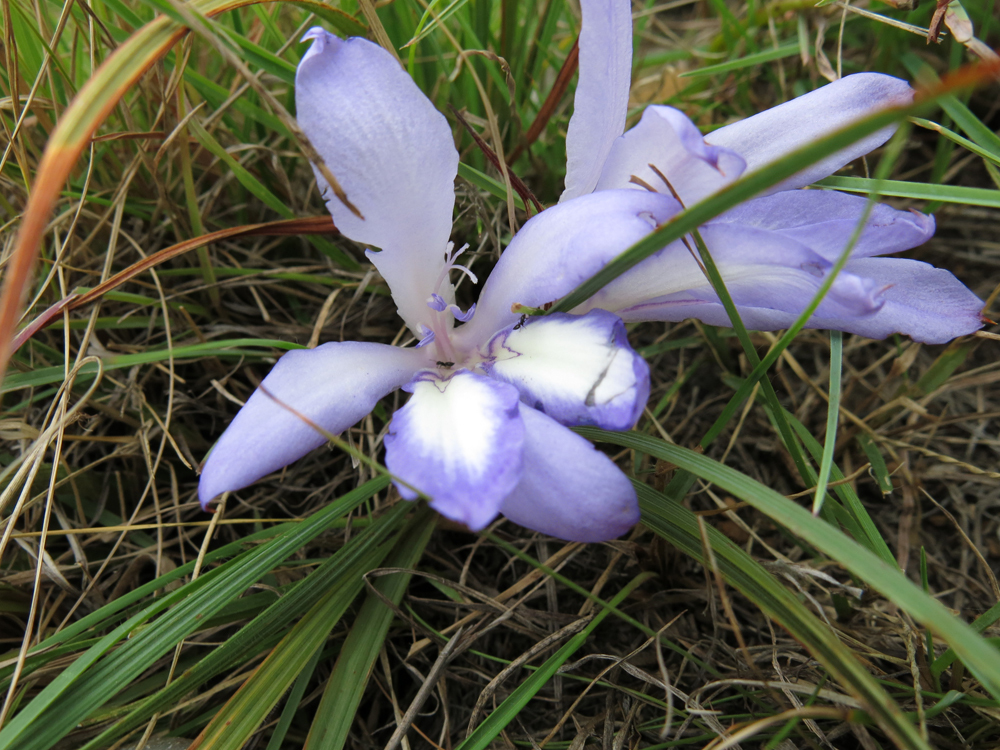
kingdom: Plantae
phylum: Tracheophyta
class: Liliopsida
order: Asparagales
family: Iridaceae
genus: Babiana
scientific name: Babiana bainesii
